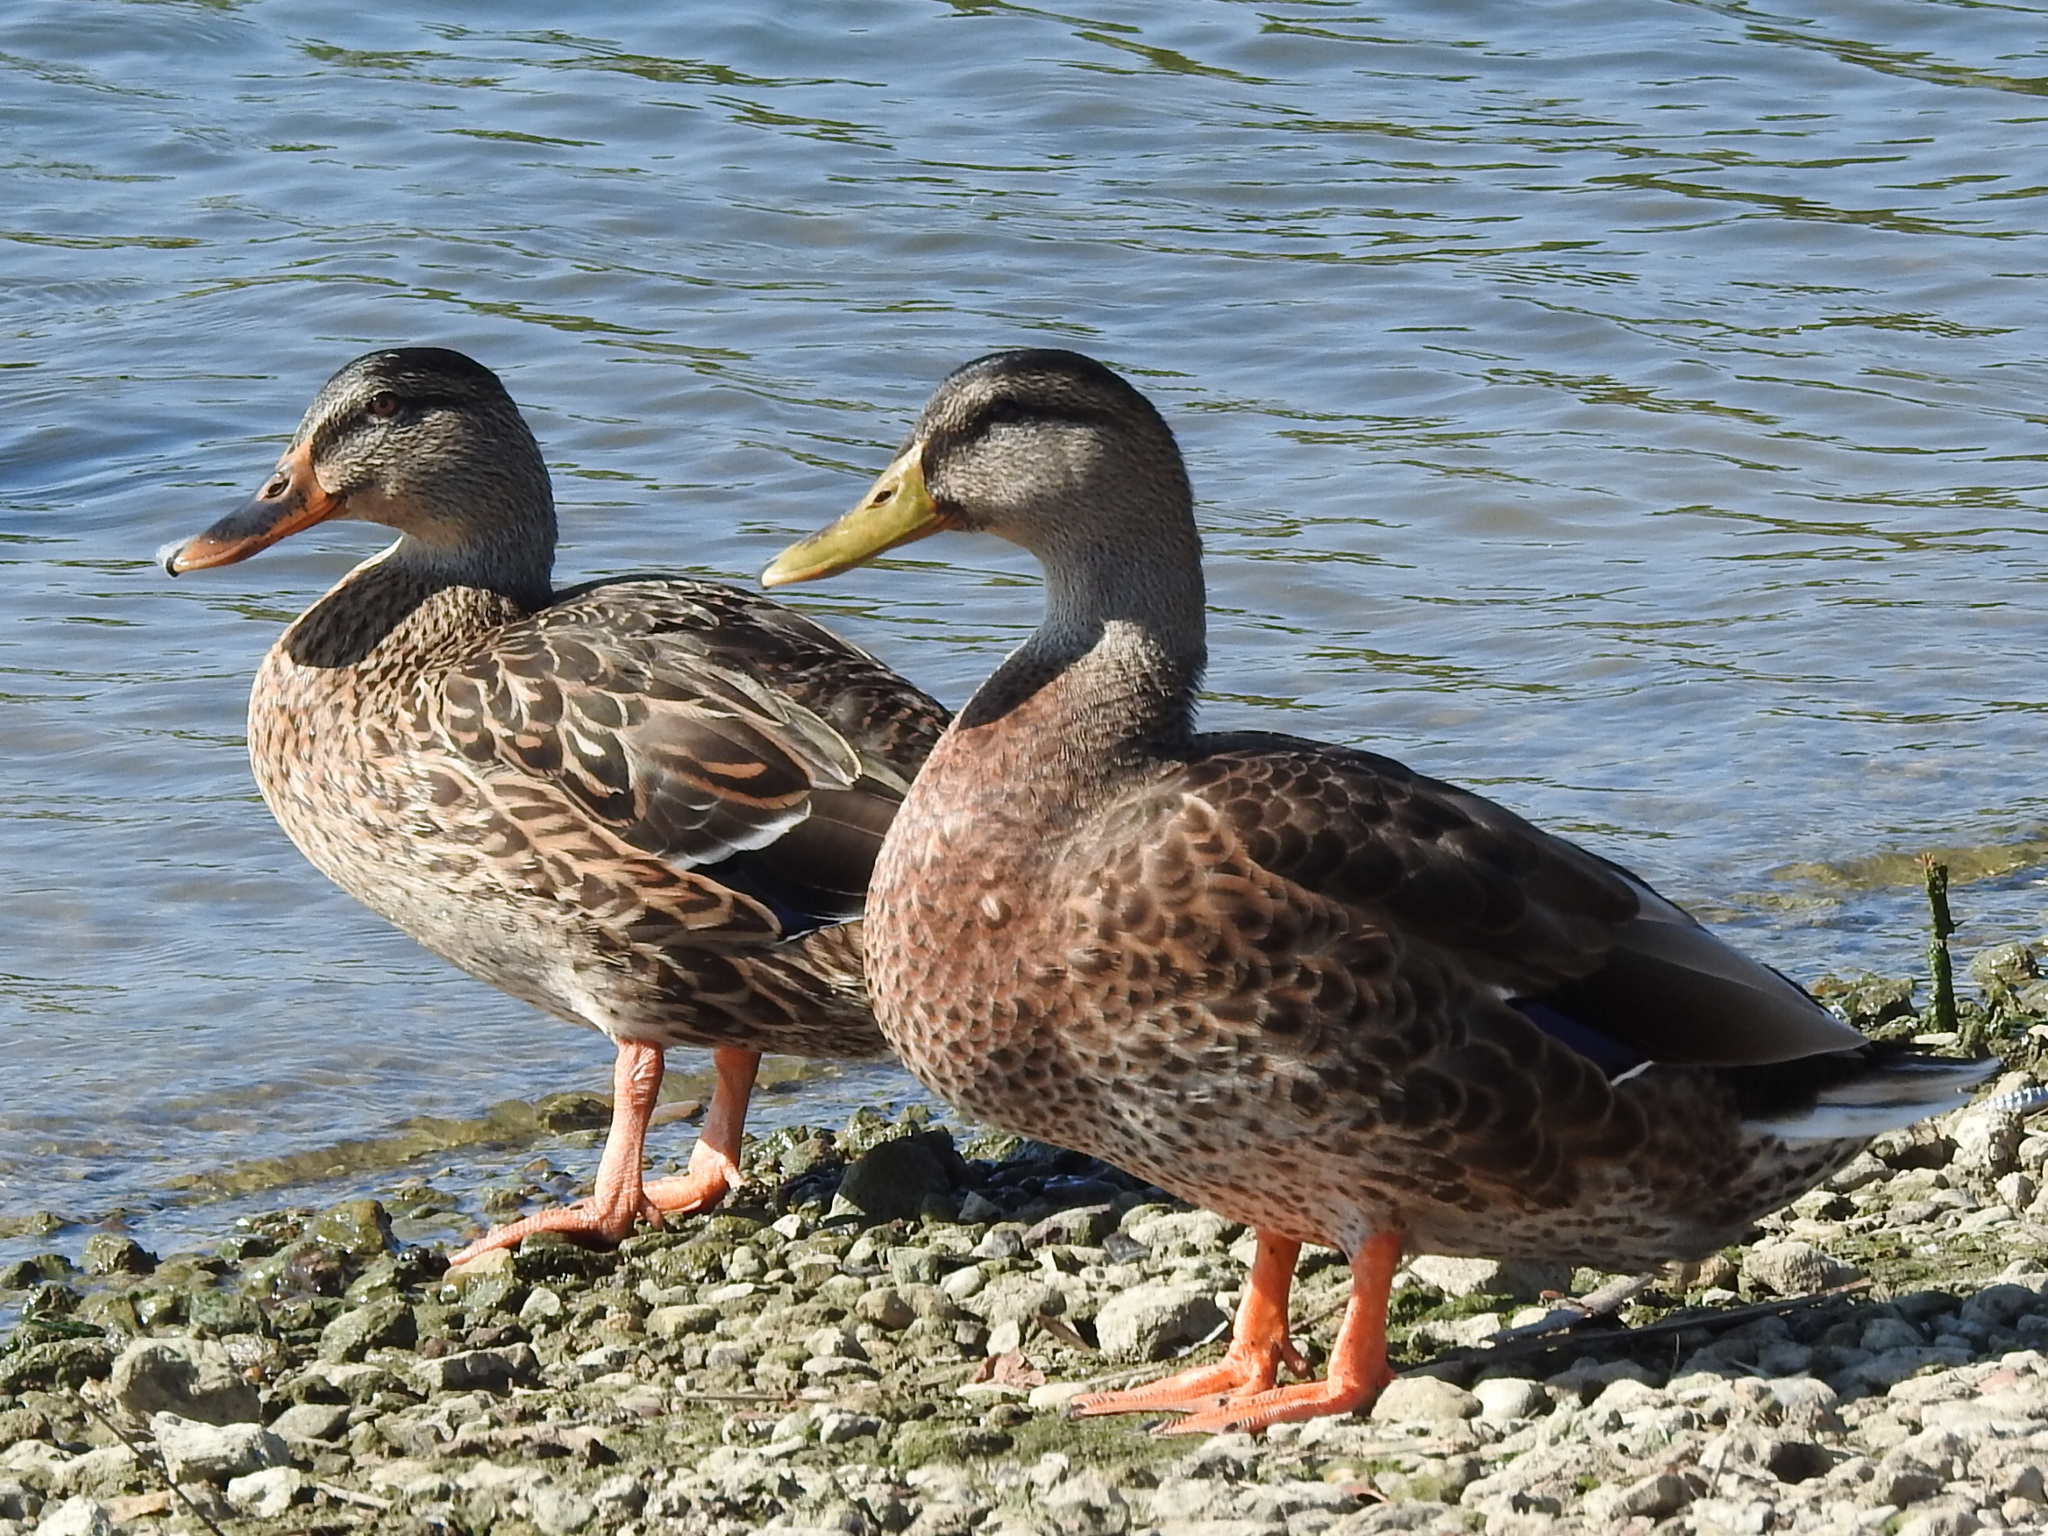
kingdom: Animalia
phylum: Chordata
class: Aves
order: Anseriformes
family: Anatidae
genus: Anas
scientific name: Anas platyrhynchos
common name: Mallard
